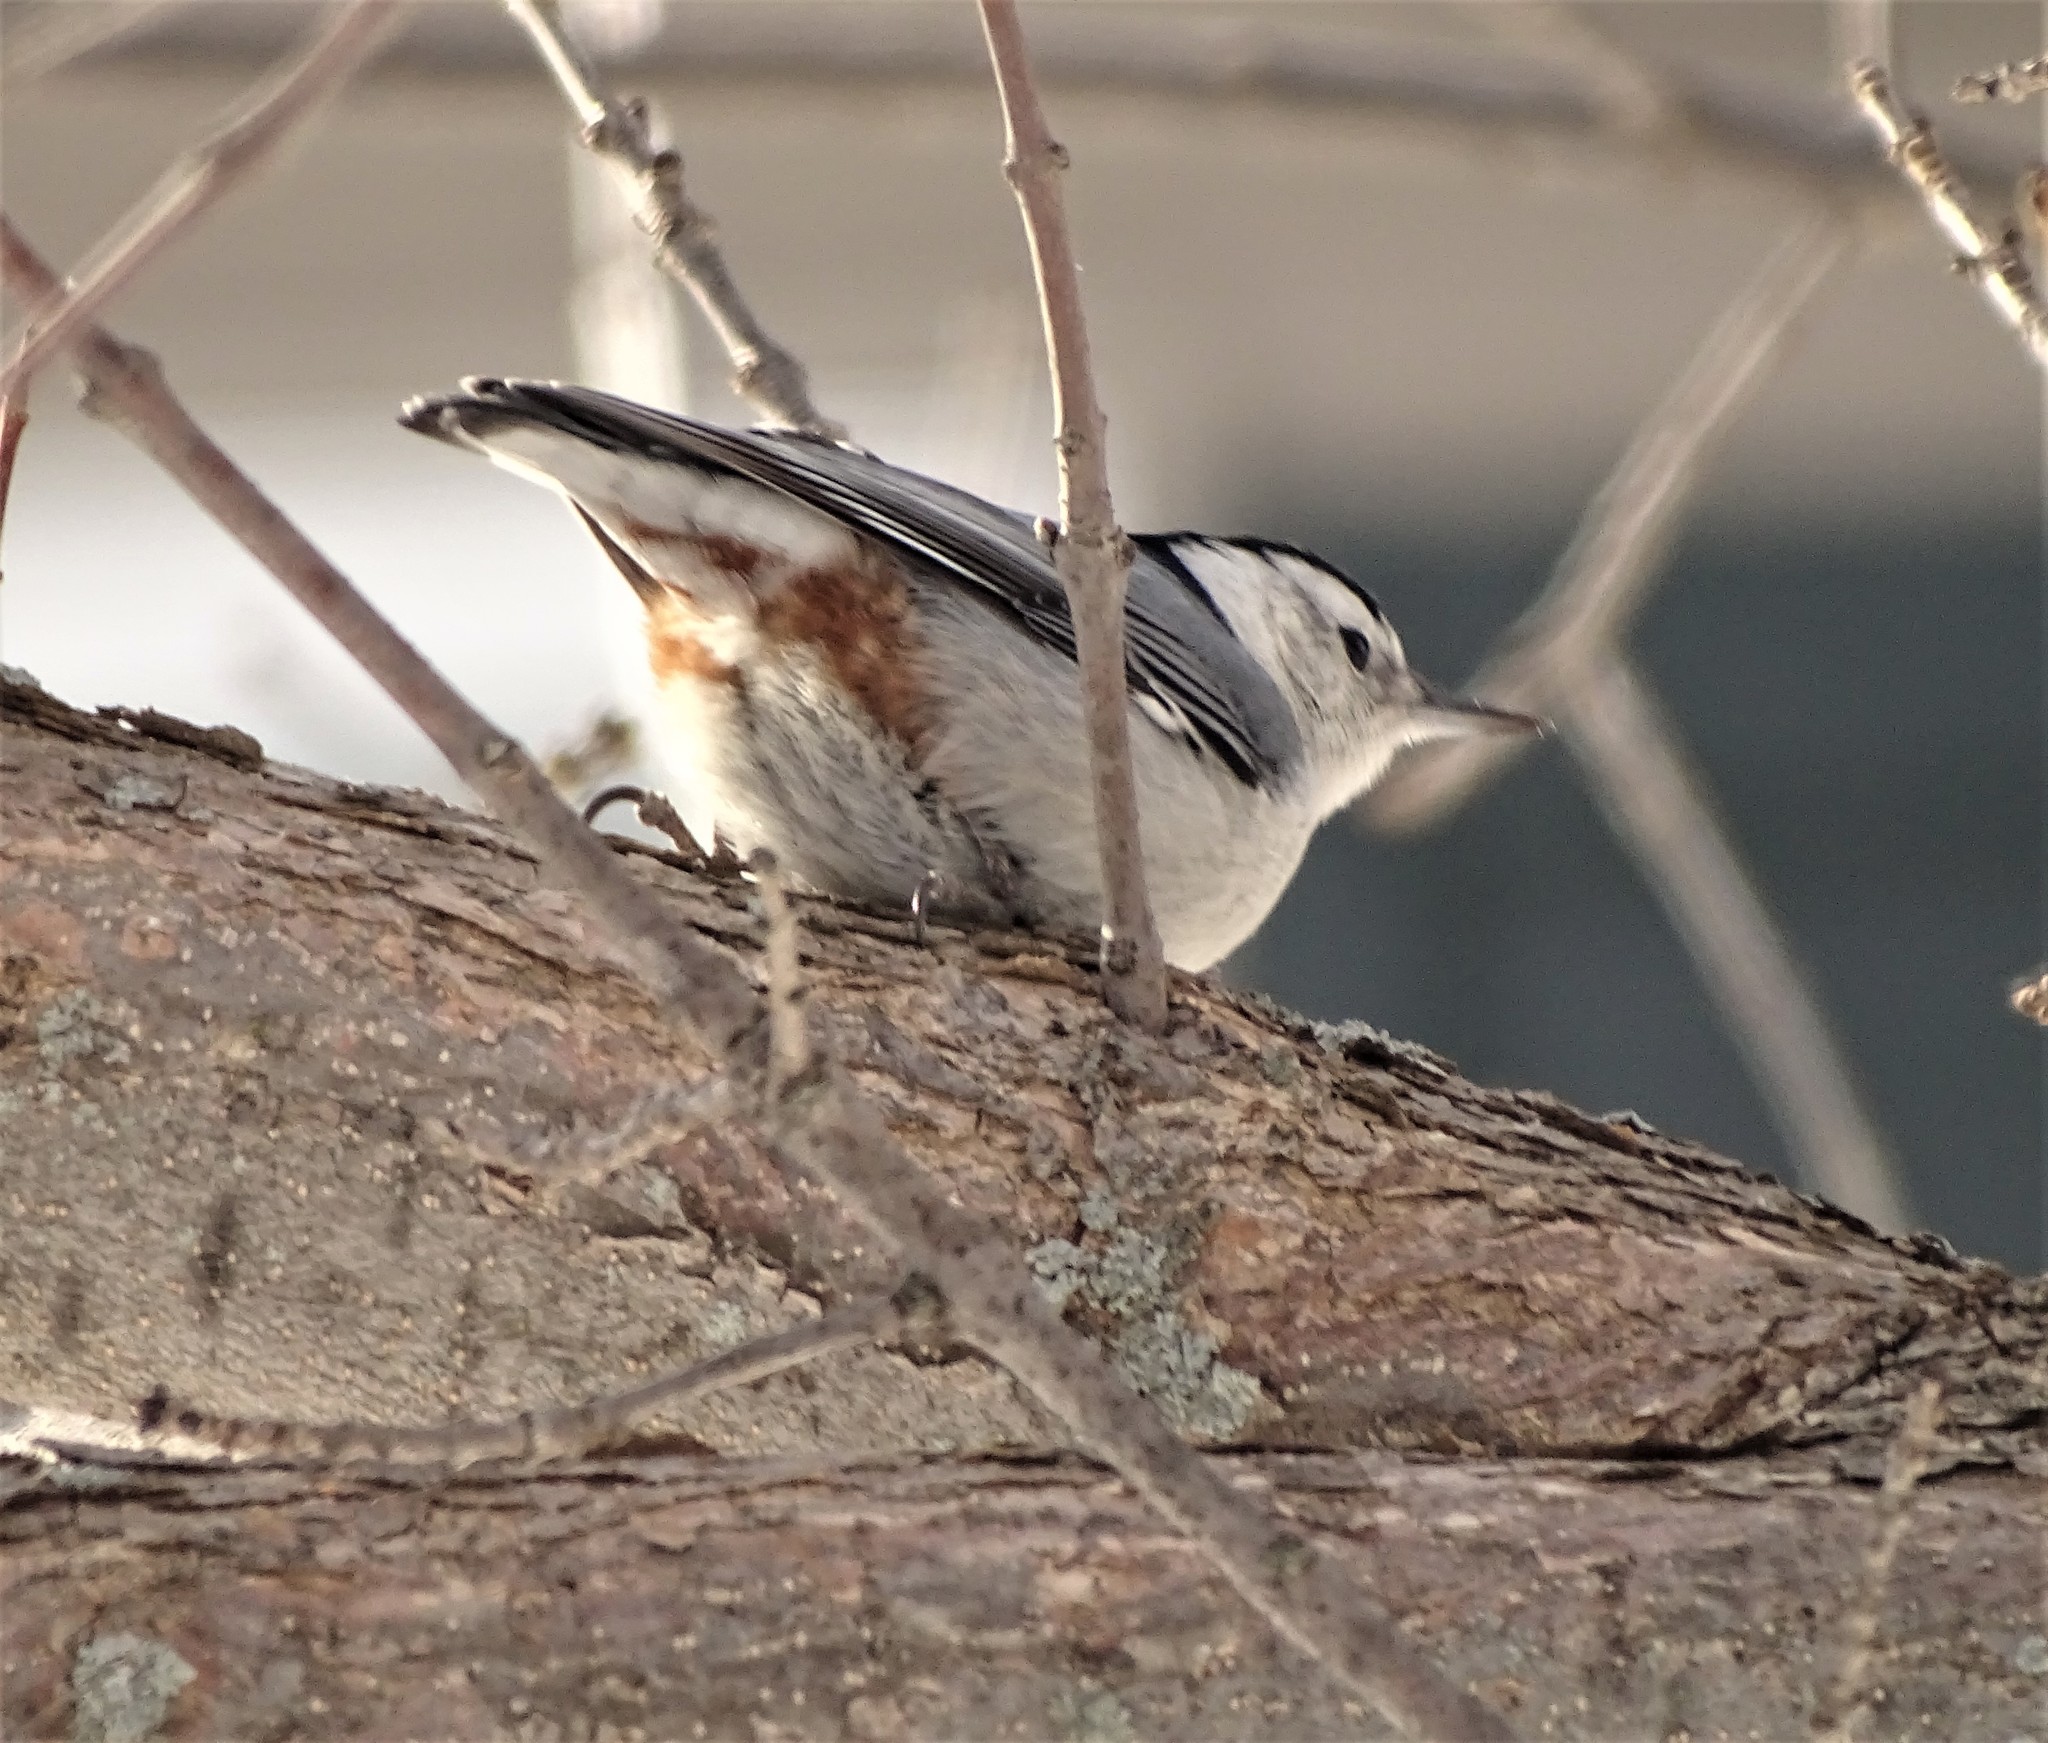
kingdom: Animalia
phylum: Chordata
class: Aves
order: Passeriformes
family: Sittidae
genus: Sitta
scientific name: Sitta carolinensis
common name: White-breasted nuthatch
